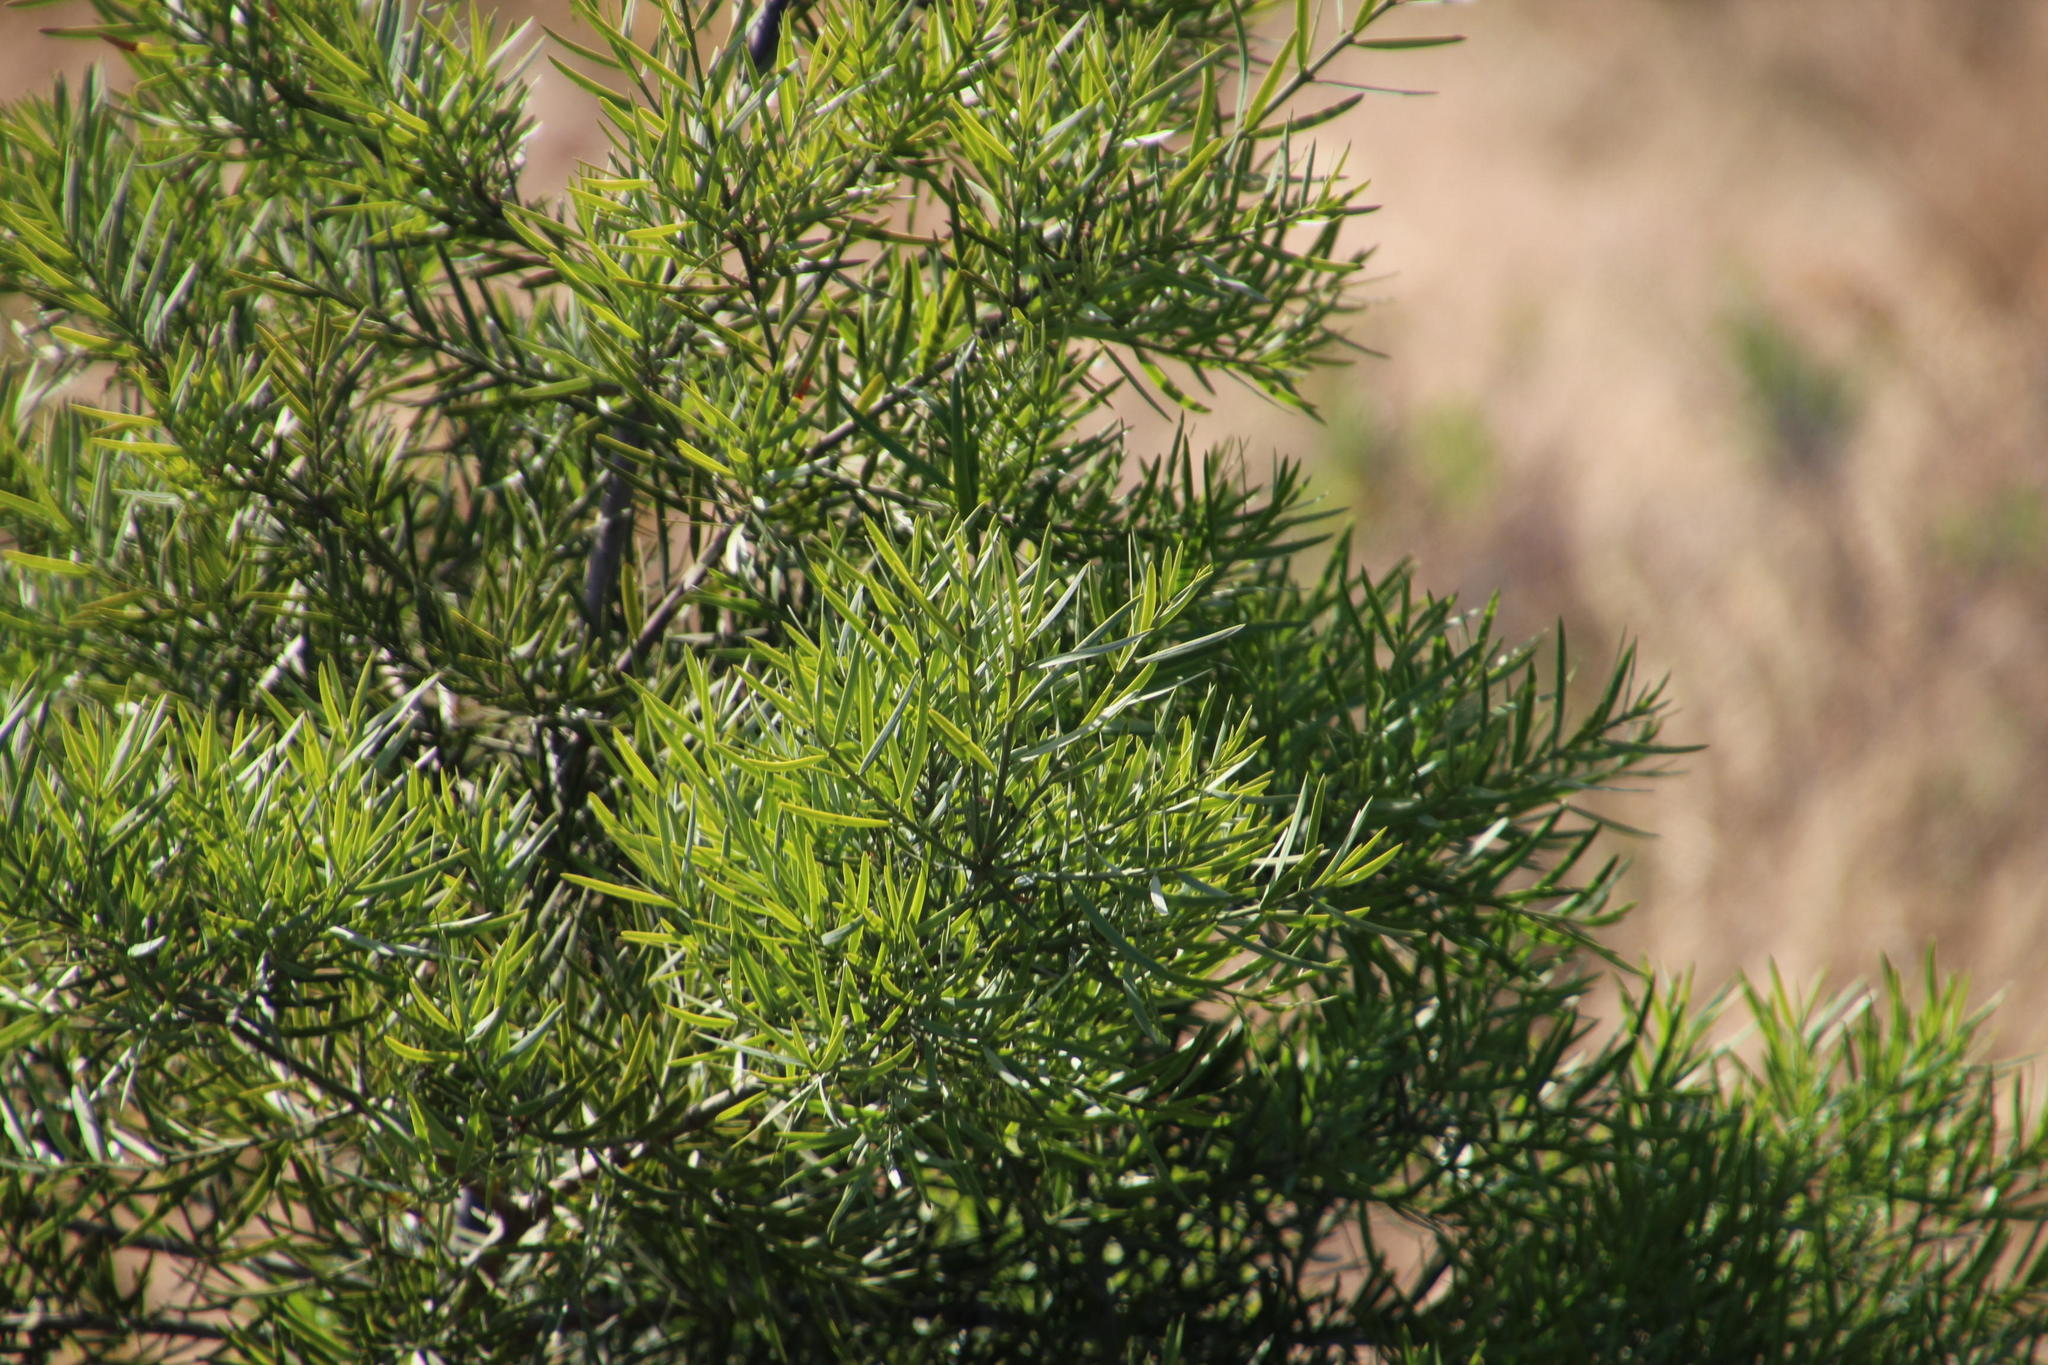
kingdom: Plantae
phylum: Tracheophyta
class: Pinopsida
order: Pinales
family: Podocarpaceae
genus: Afrocarpus
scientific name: Afrocarpus falcatus
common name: Bastard yellowwood
